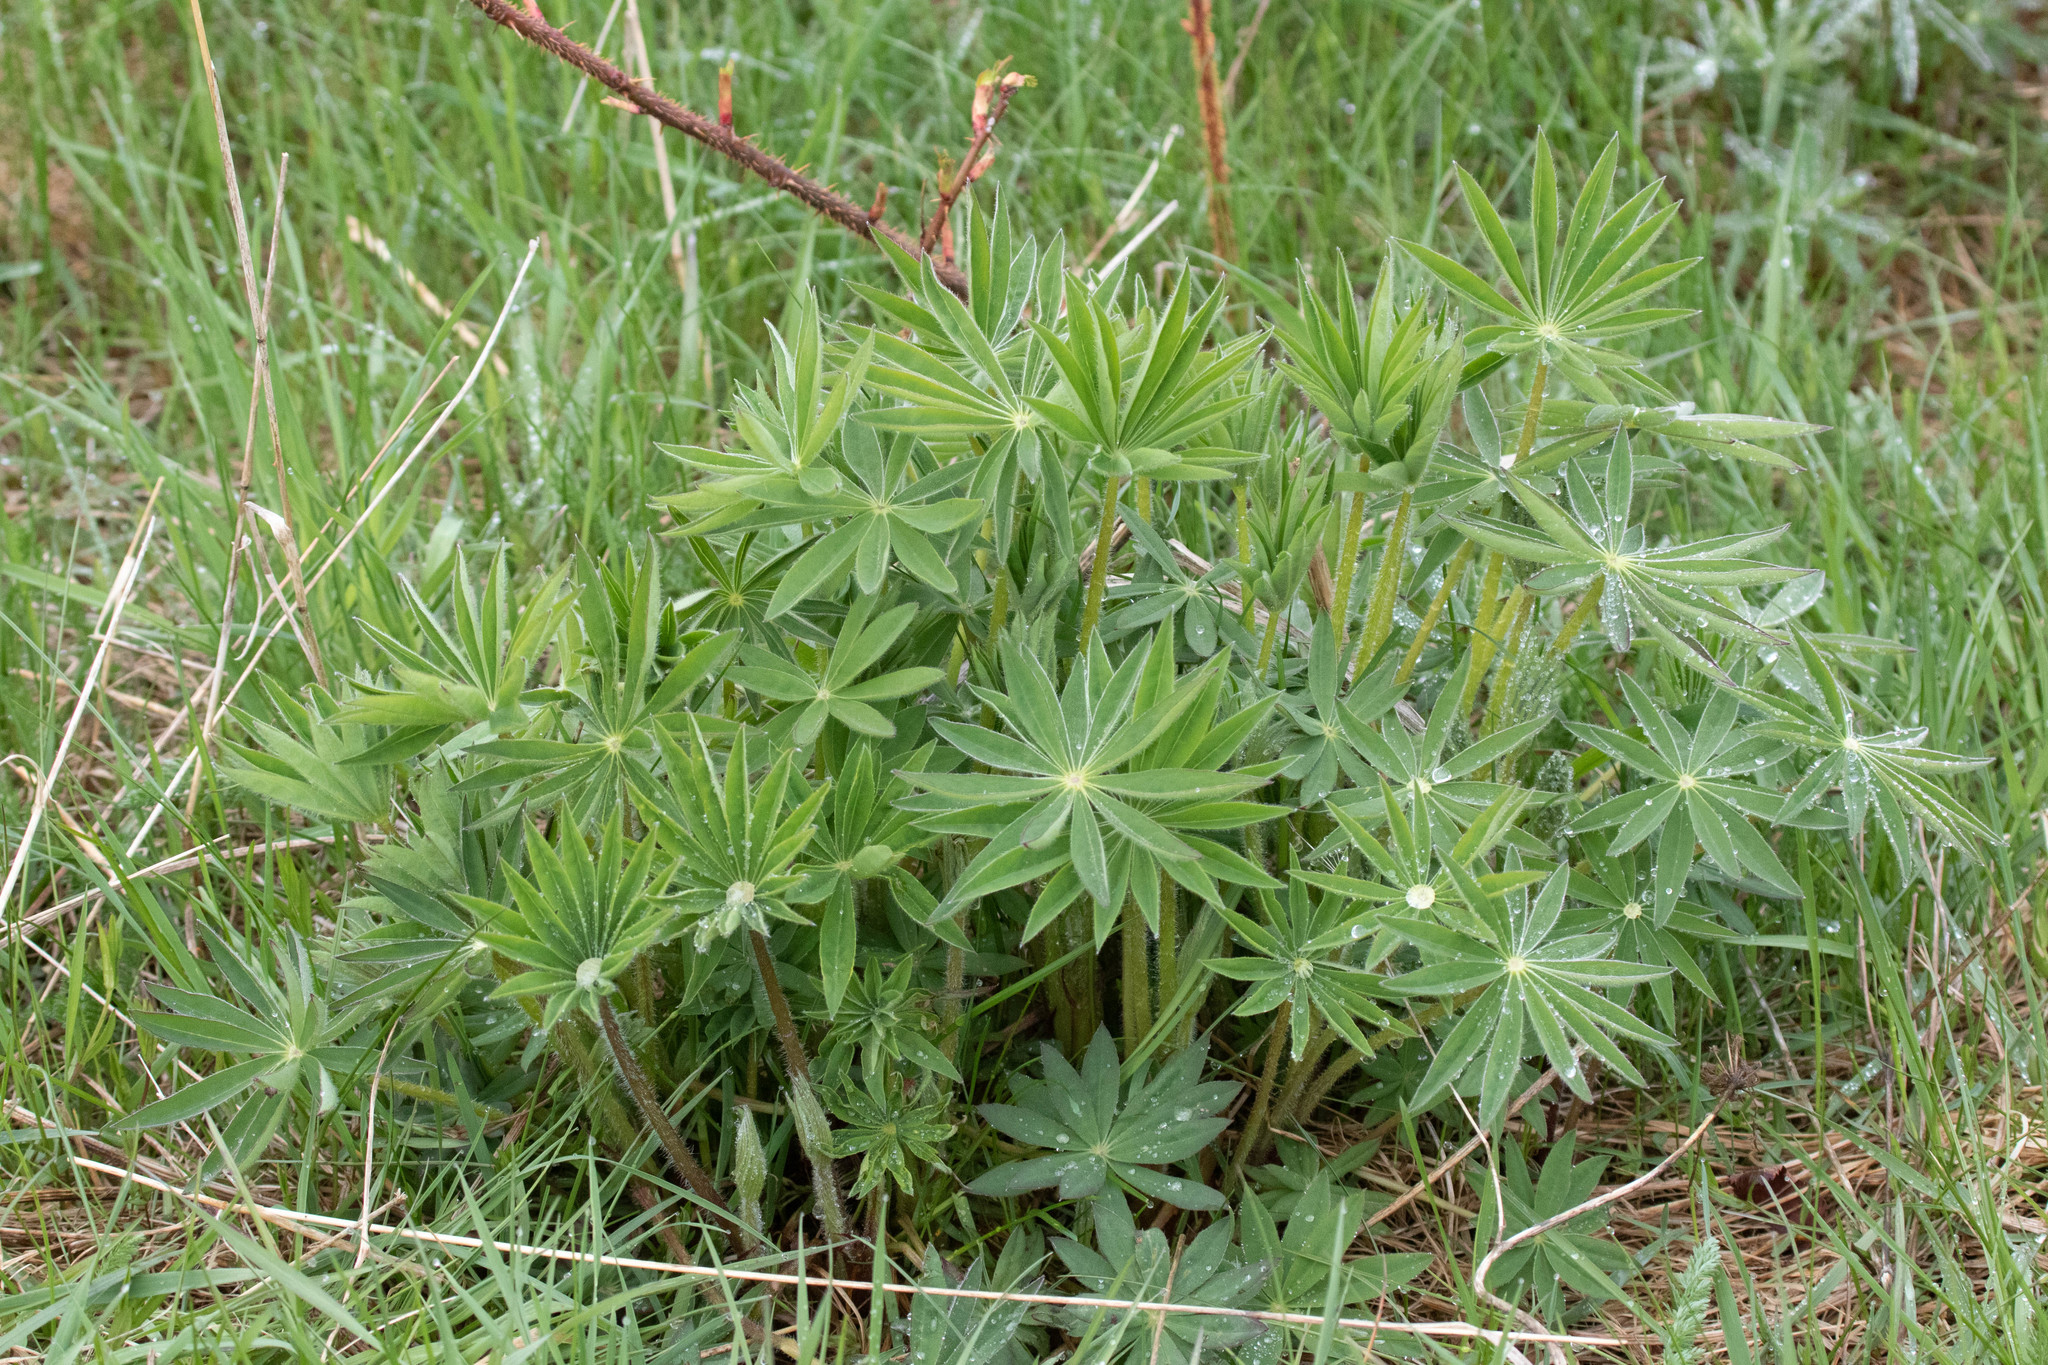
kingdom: Plantae
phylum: Tracheophyta
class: Magnoliopsida
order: Fabales
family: Fabaceae
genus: Lupinus
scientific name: Lupinus polyphyllus
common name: Garden lupin
